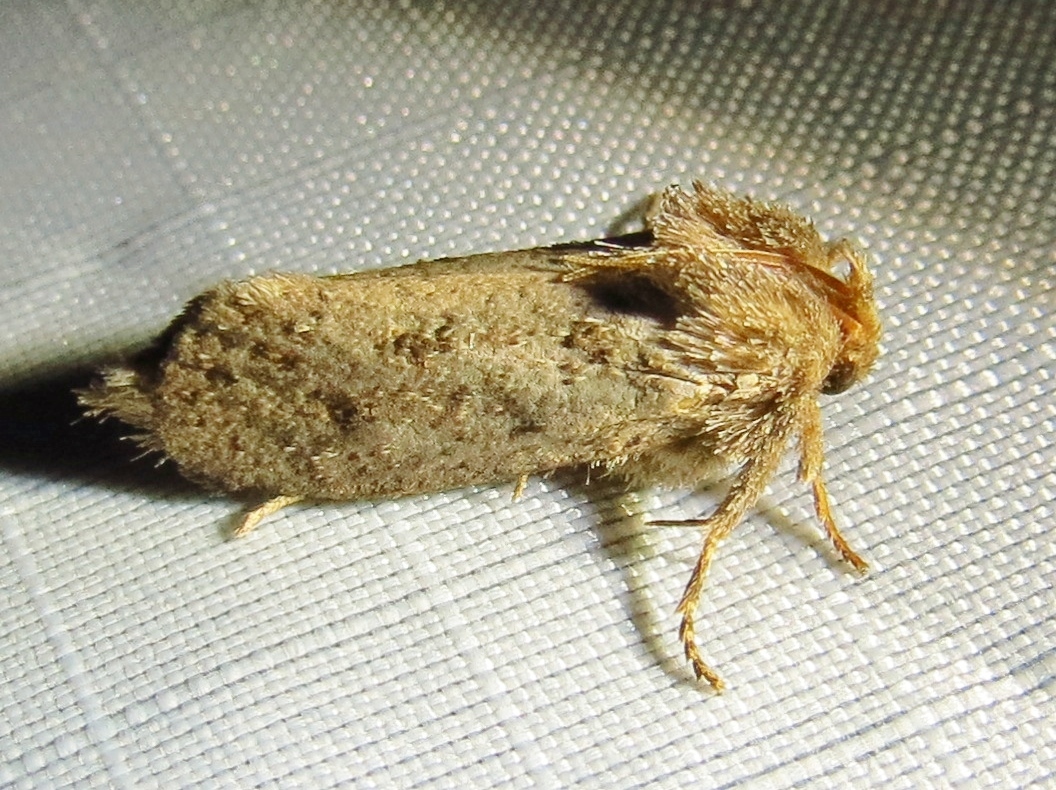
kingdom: Animalia
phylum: Arthropoda
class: Insecta
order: Lepidoptera
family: Tineidae
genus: Acrolophus
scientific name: Acrolophus arcanella
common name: Arcane grass tubeworm moth
